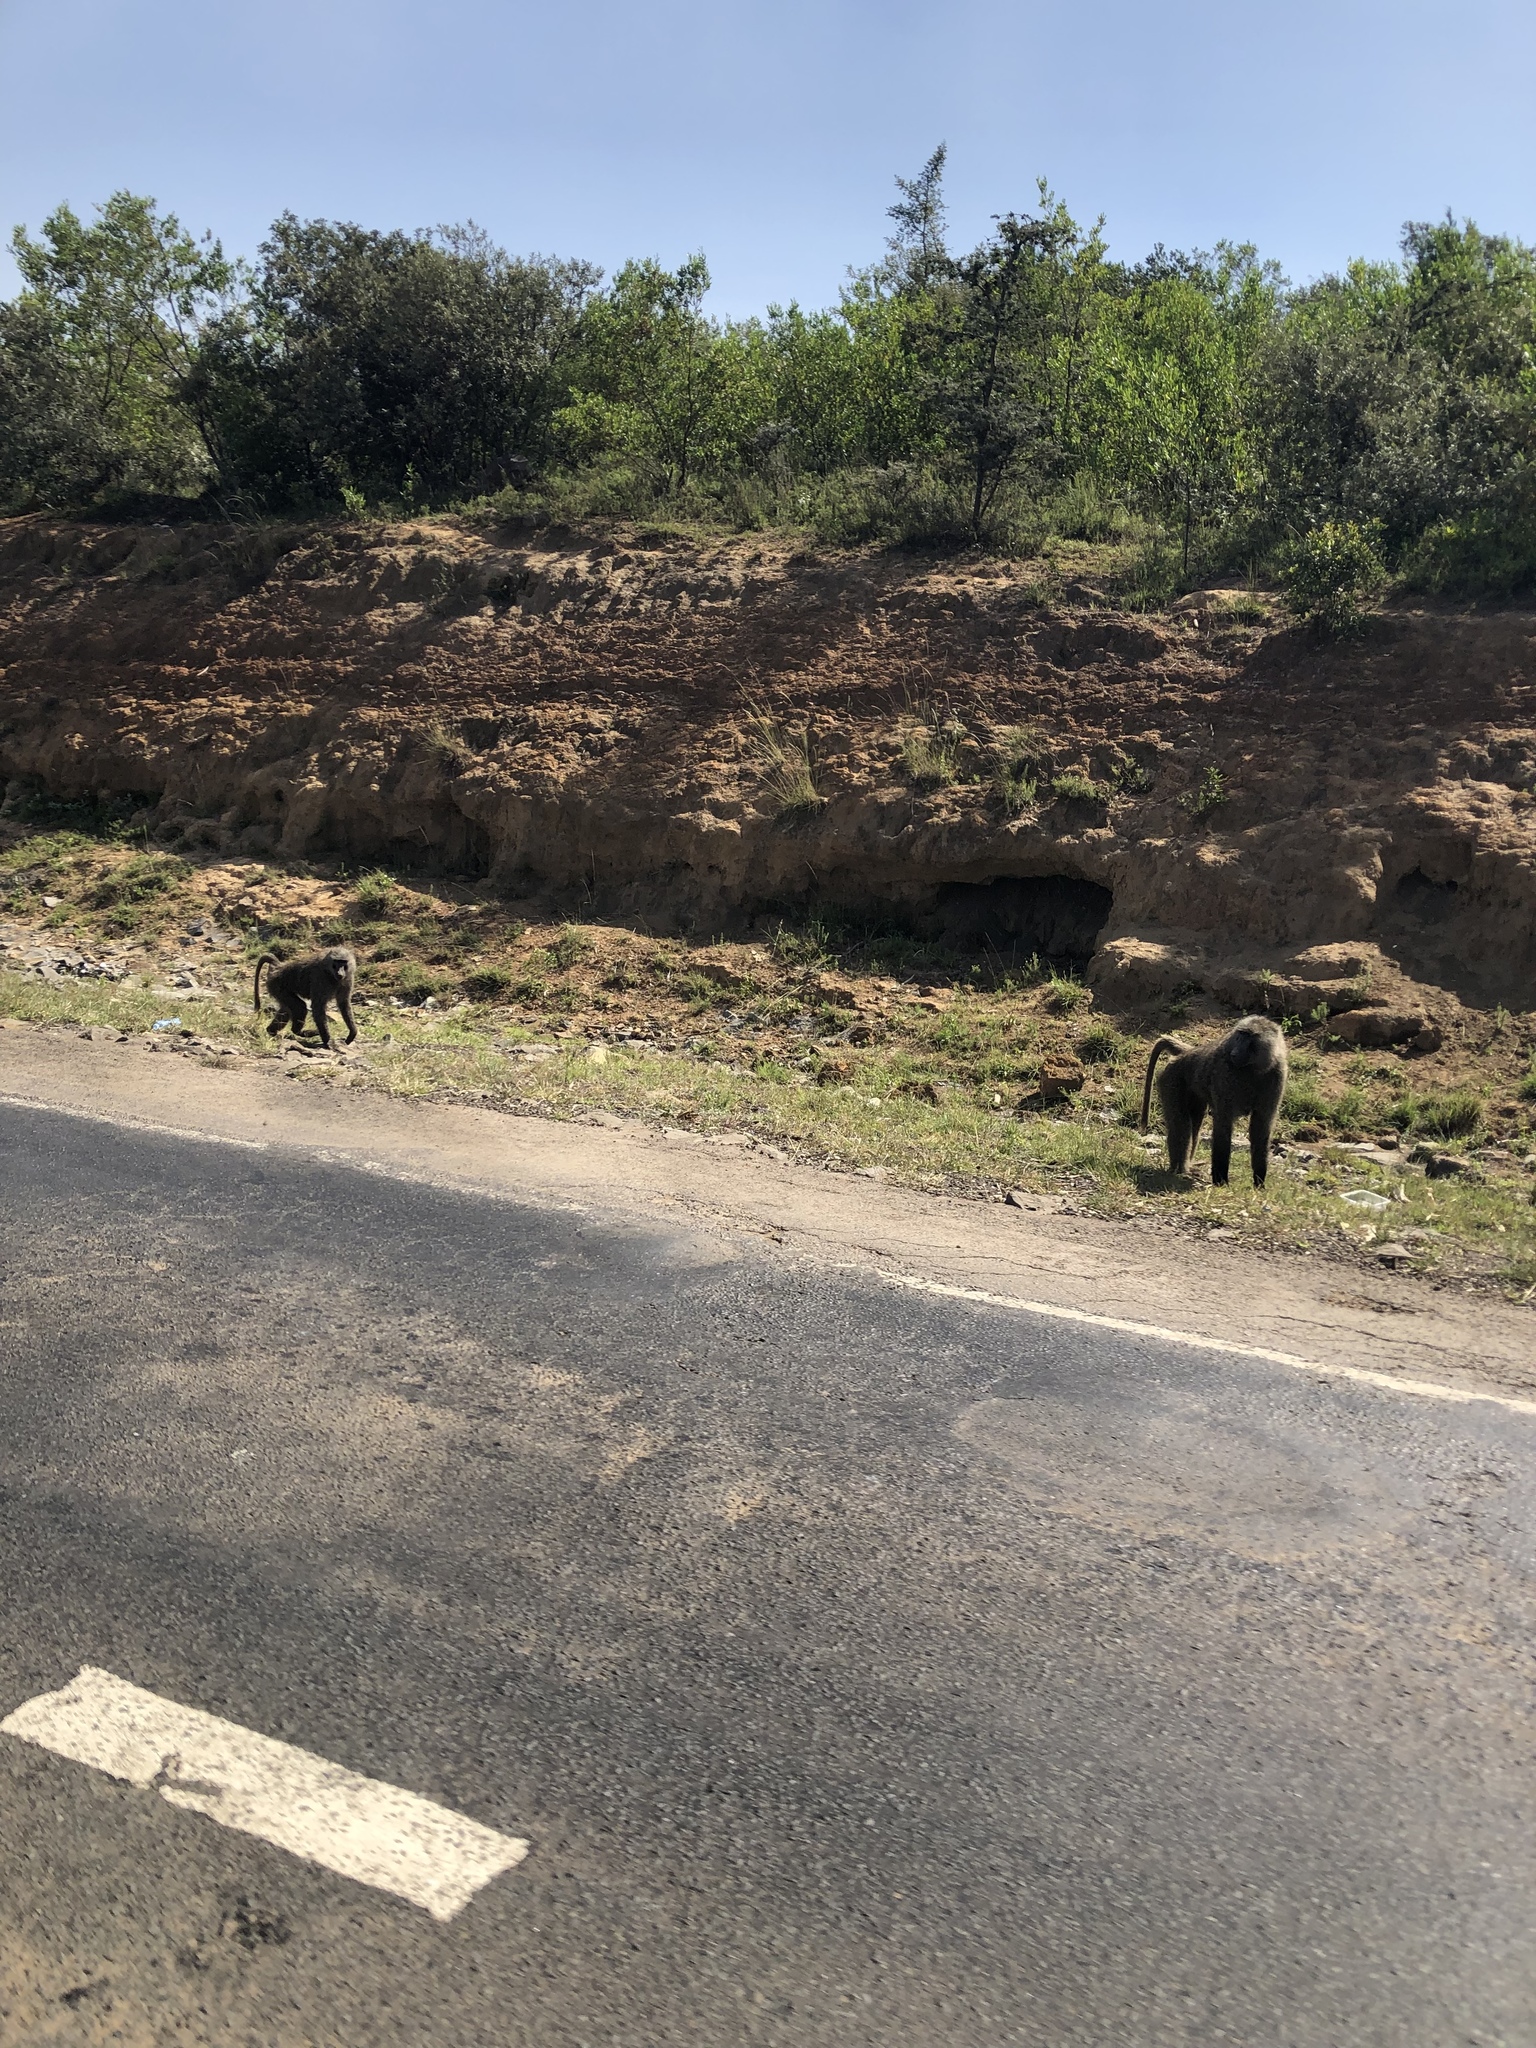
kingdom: Animalia
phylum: Chordata
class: Mammalia
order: Primates
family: Cercopithecidae
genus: Papio
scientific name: Papio anubis
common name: Olive baboon
